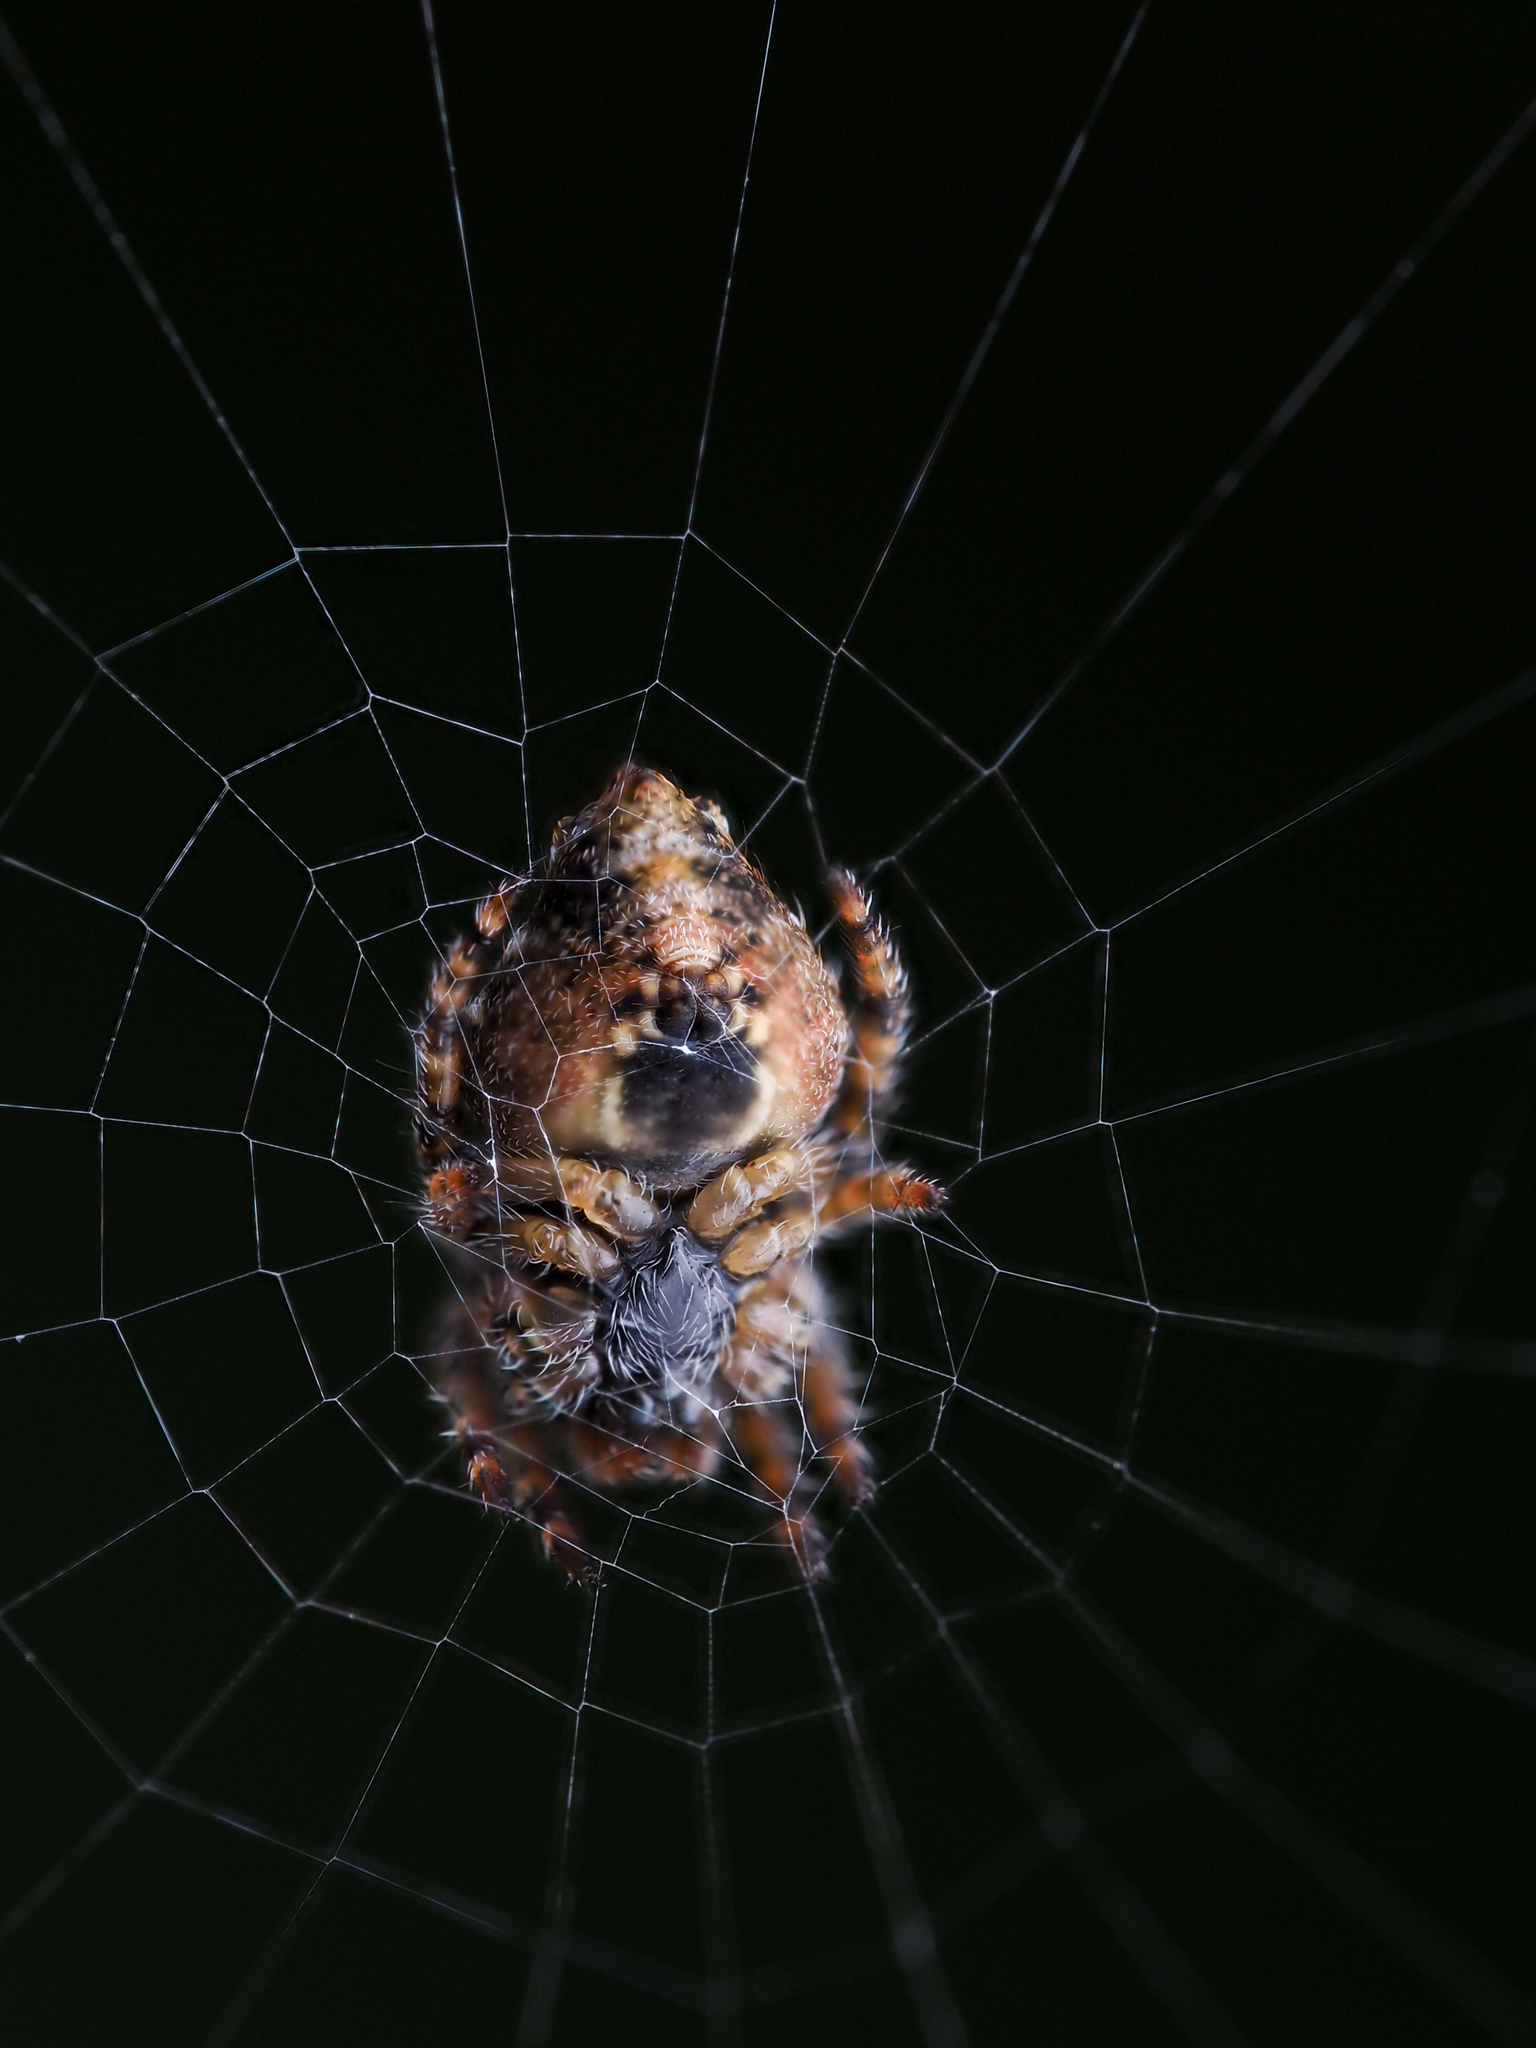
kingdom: Animalia
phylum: Arthropoda
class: Arachnida
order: Araneae
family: Araneidae
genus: Eriophora
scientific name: Eriophora pustulosa
